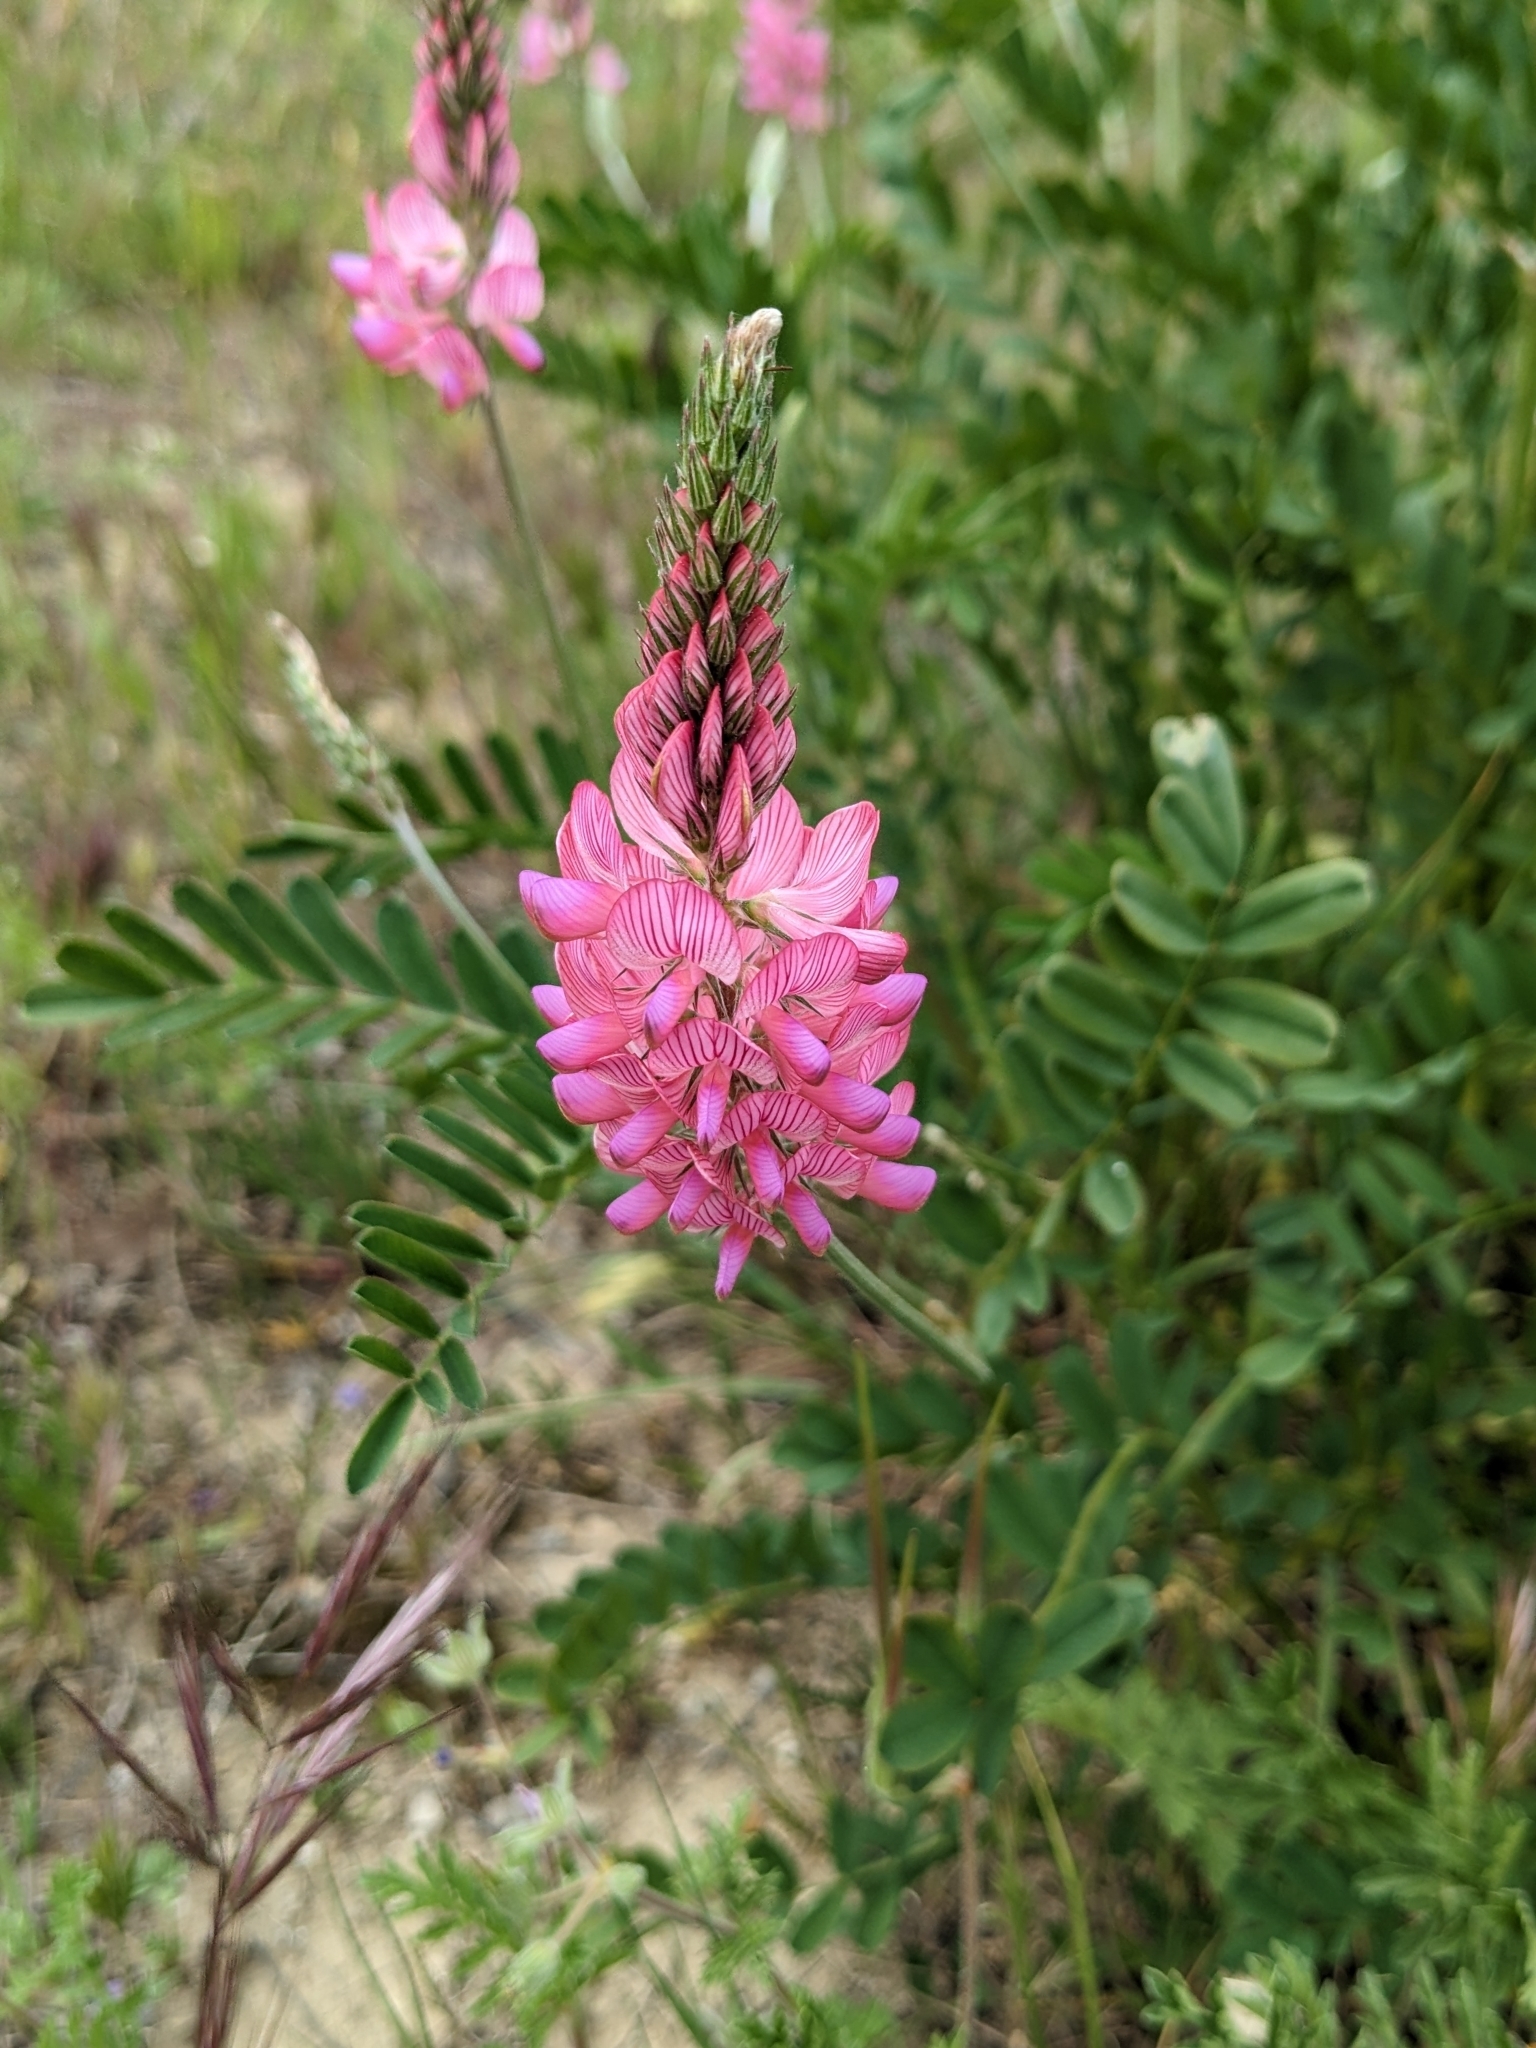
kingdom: Plantae
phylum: Tracheophyta
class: Magnoliopsida
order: Fabales
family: Fabaceae
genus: Onobrychis
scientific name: Onobrychis viciifolia
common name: Sainfoin
